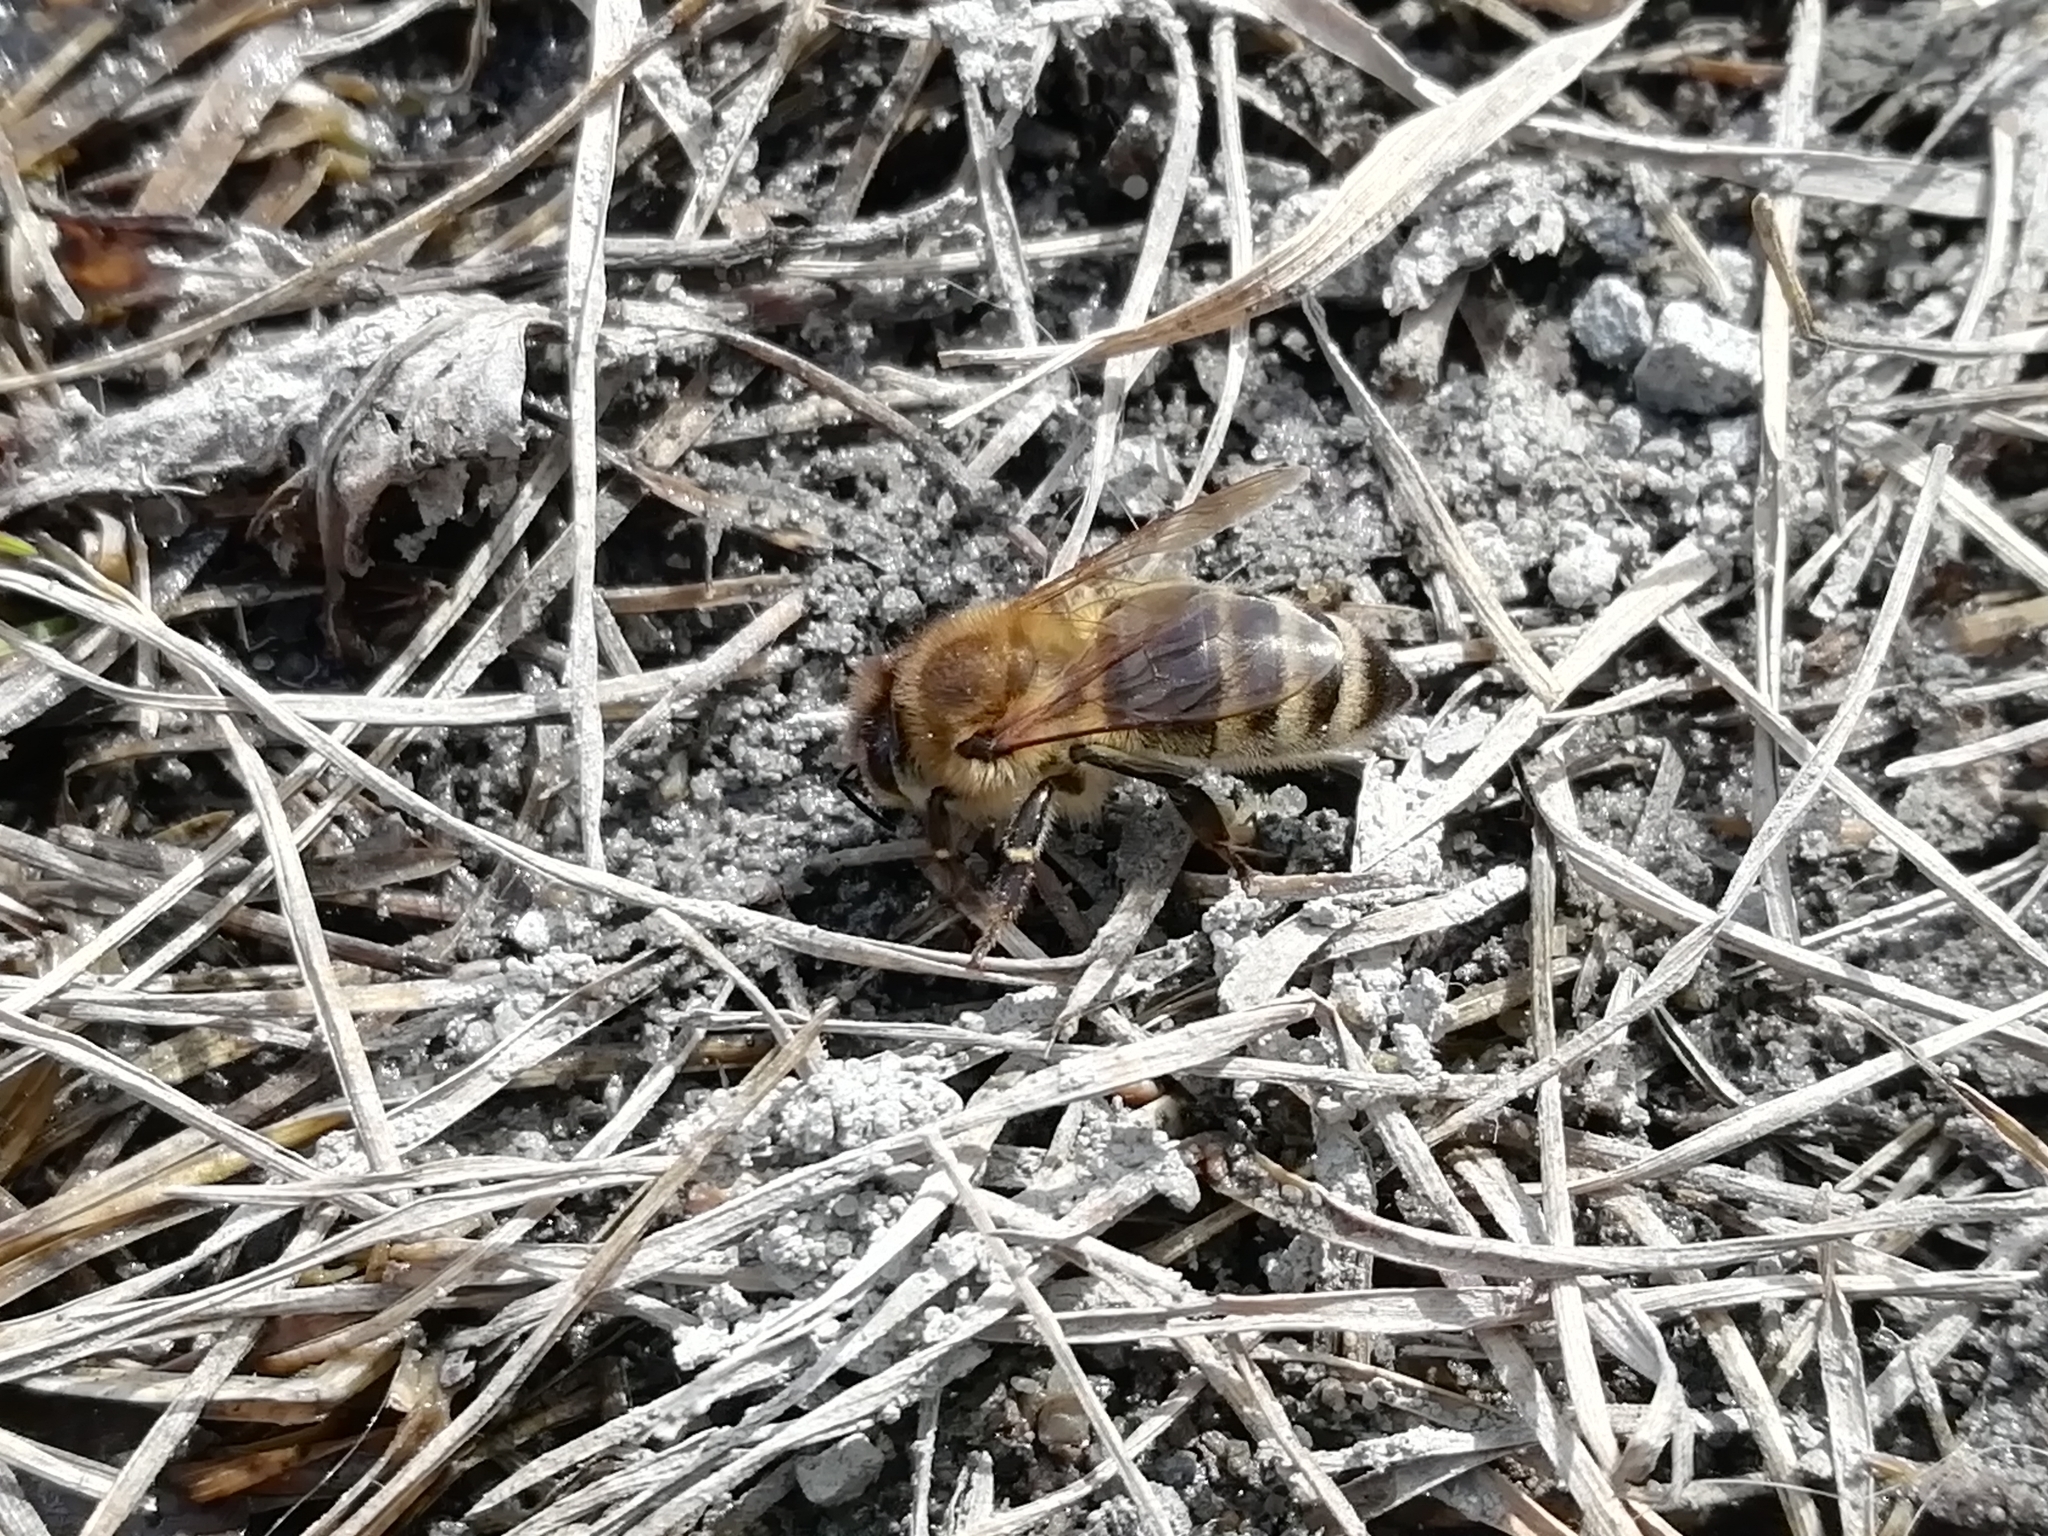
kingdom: Animalia
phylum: Arthropoda
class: Insecta
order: Hymenoptera
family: Apidae
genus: Apis
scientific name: Apis mellifera
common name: Honey bee
